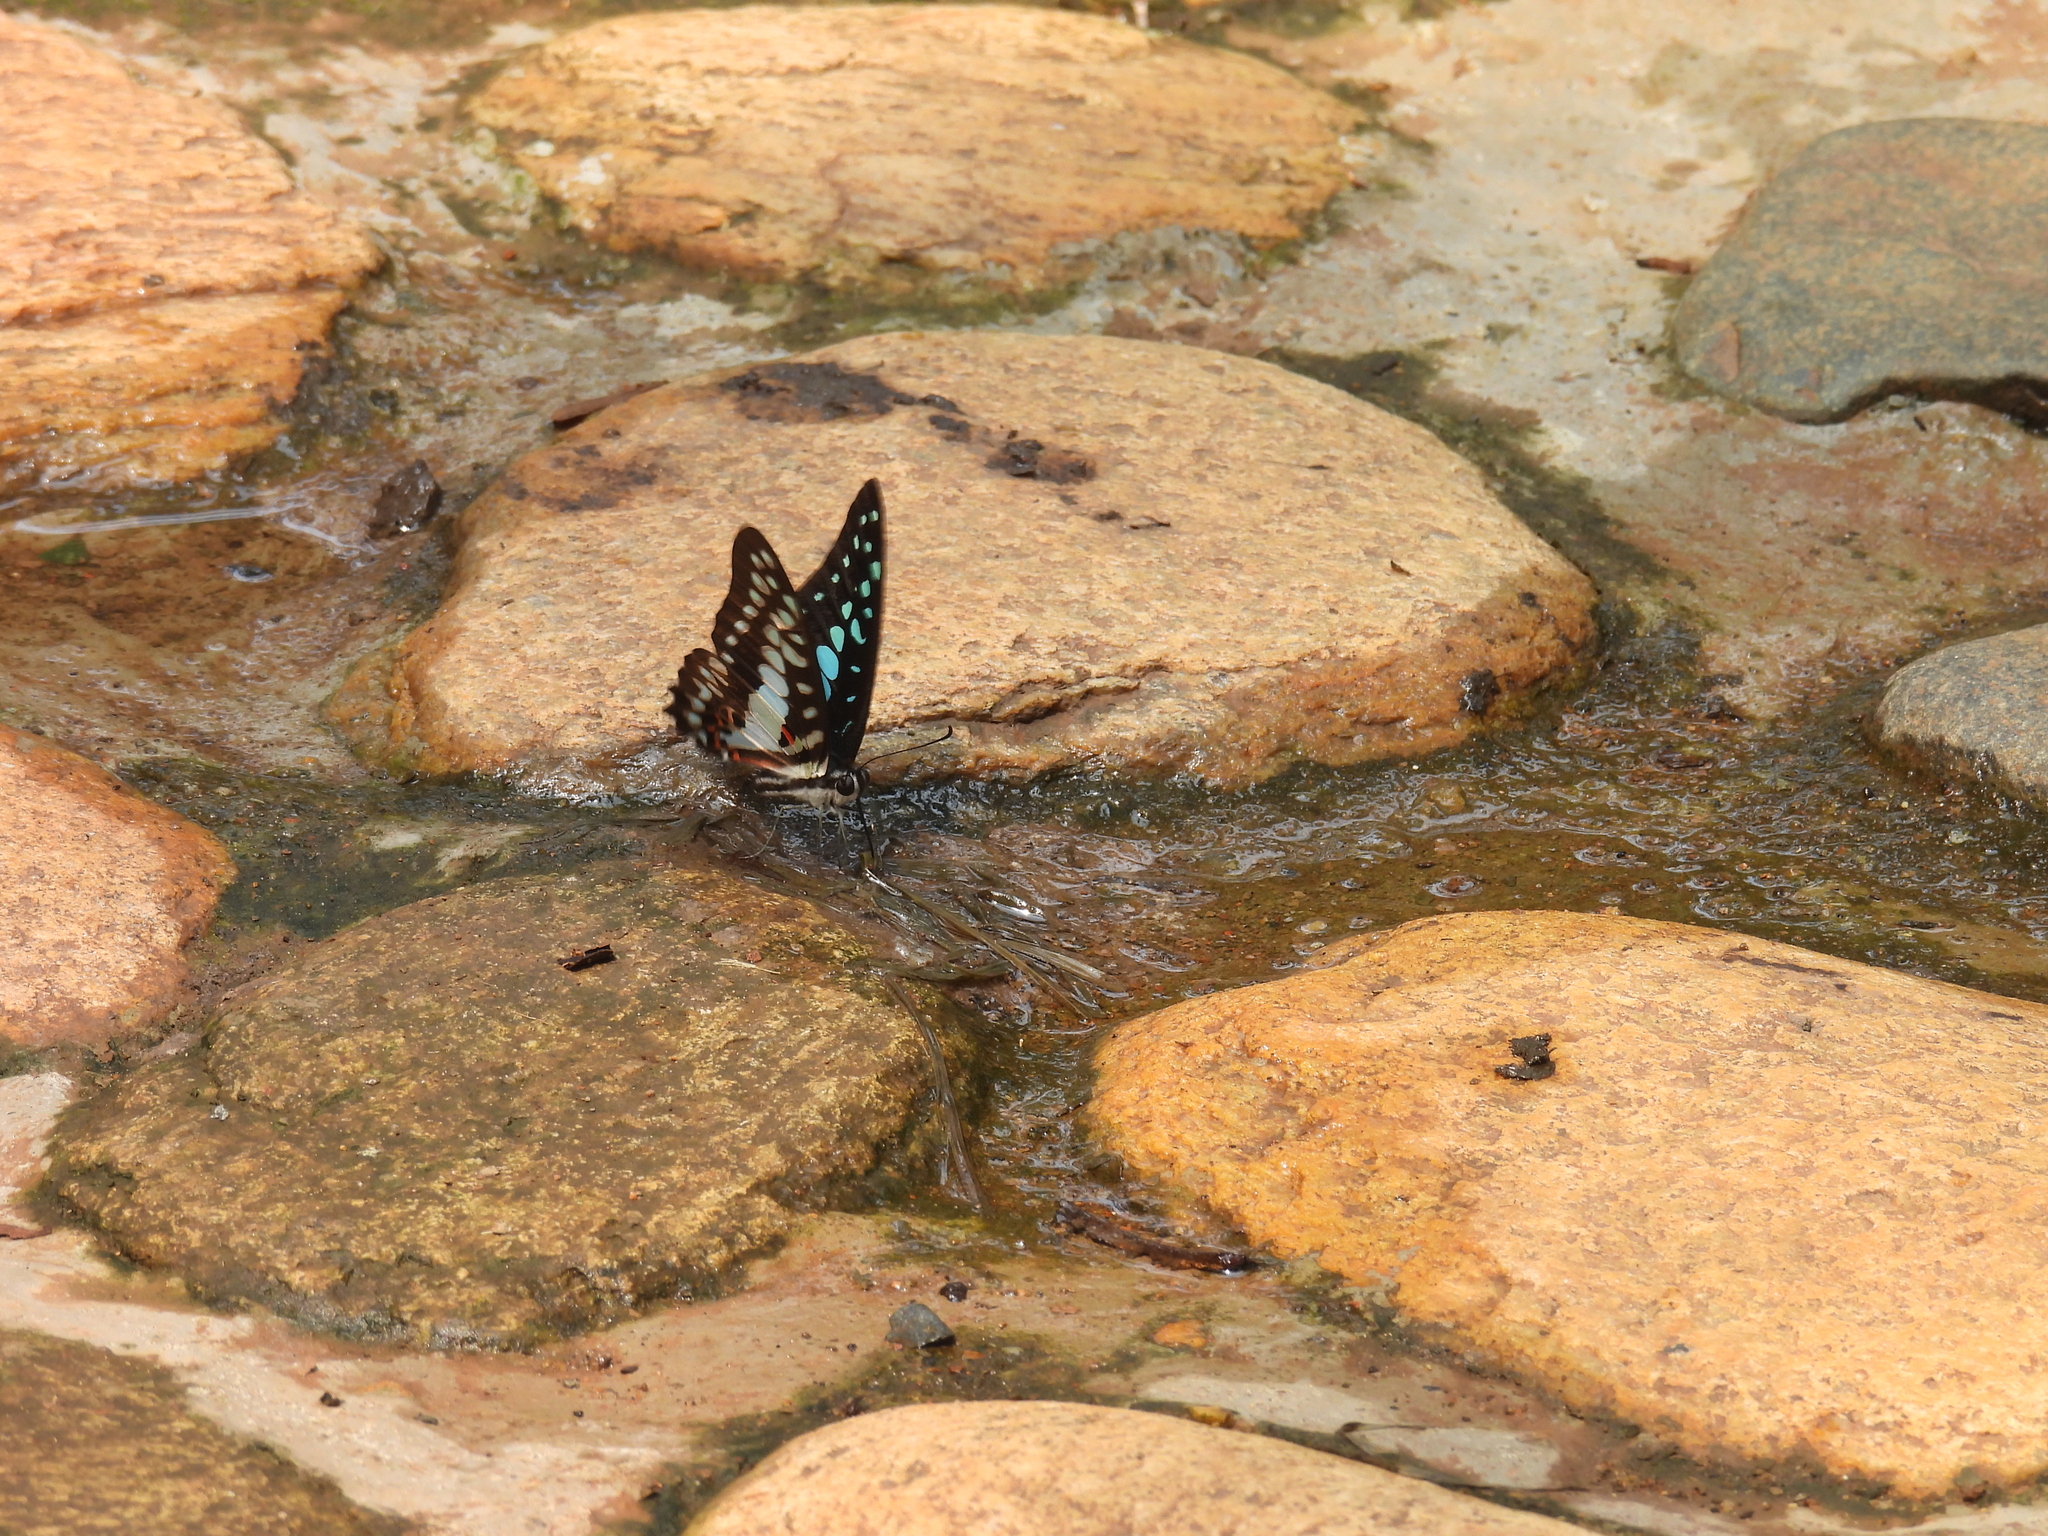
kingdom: Animalia
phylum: Arthropoda
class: Insecta
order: Lepidoptera
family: Papilionidae
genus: Graphium
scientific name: Graphium doson
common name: Common jay
